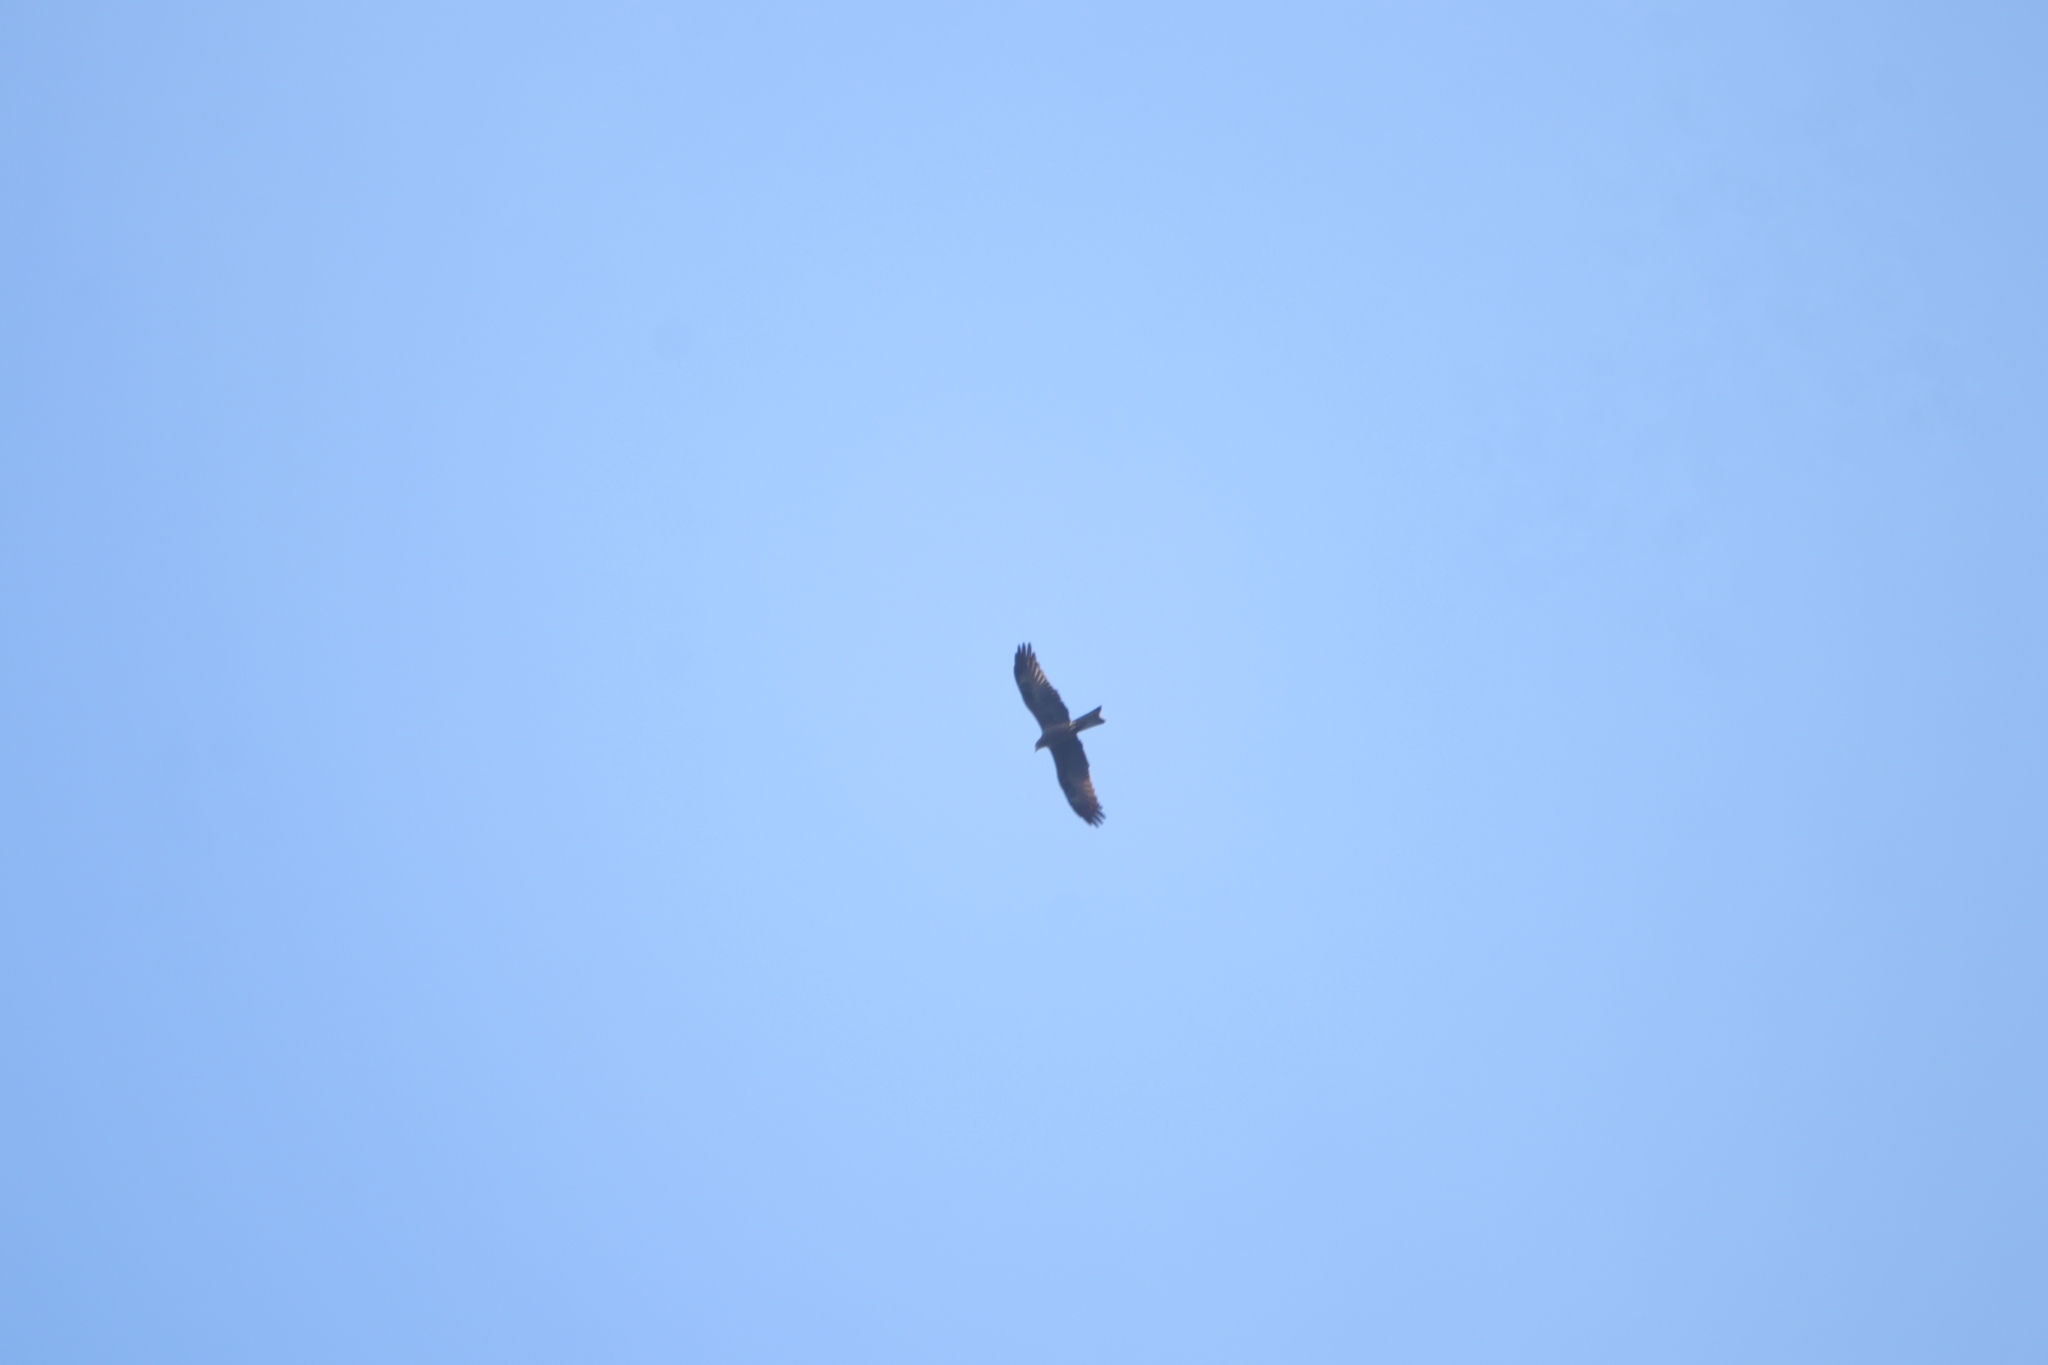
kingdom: Animalia
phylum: Chordata
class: Aves
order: Accipitriformes
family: Accipitridae
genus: Milvus
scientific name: Milvus migrans
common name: Black kite
